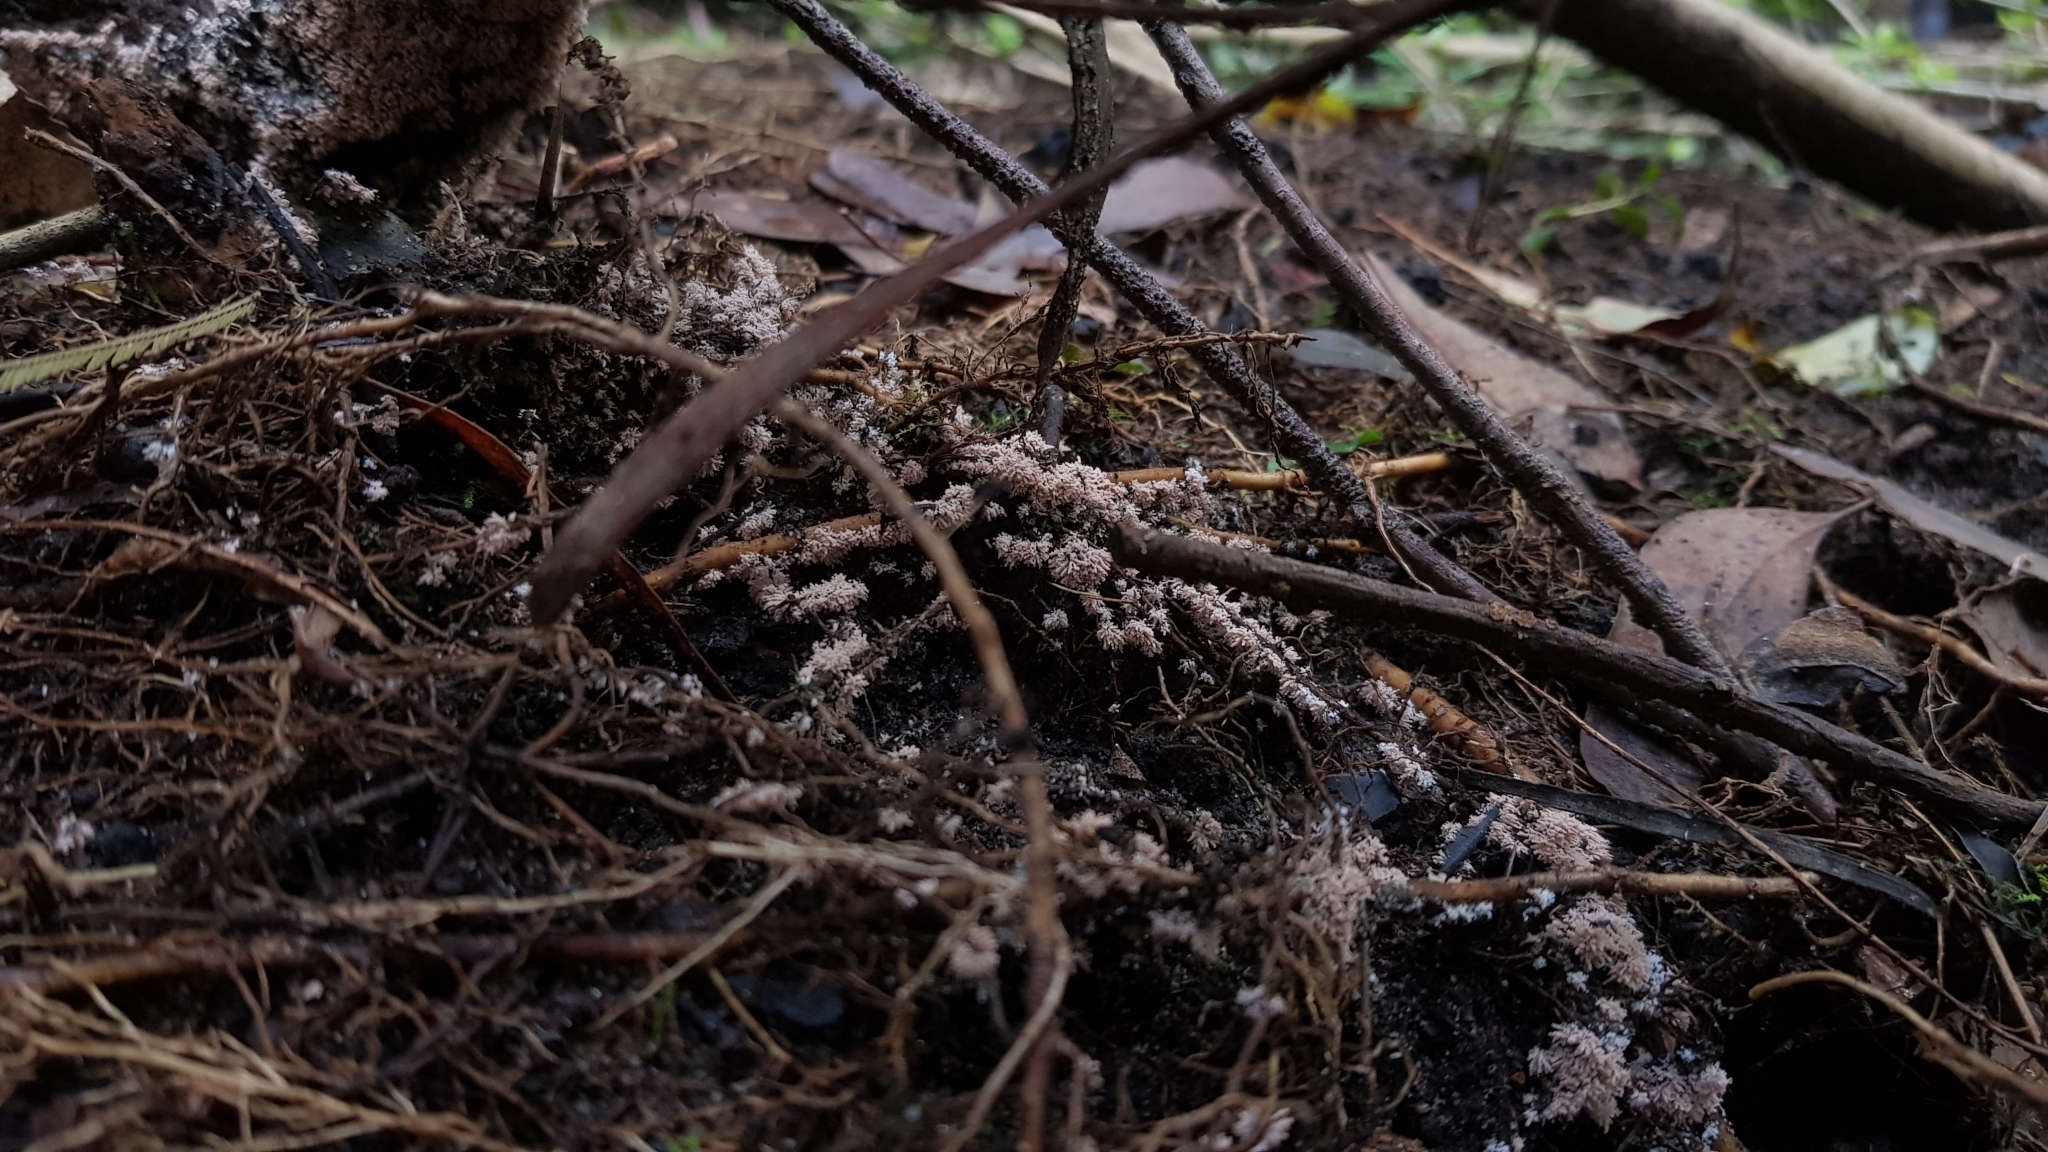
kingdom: Fungi
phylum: Ascomycota
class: Pezizomycetes
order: Pezizales
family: Pezizaceae
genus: Chromelosporiopsis
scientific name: Chromelosporiopsis carnea
